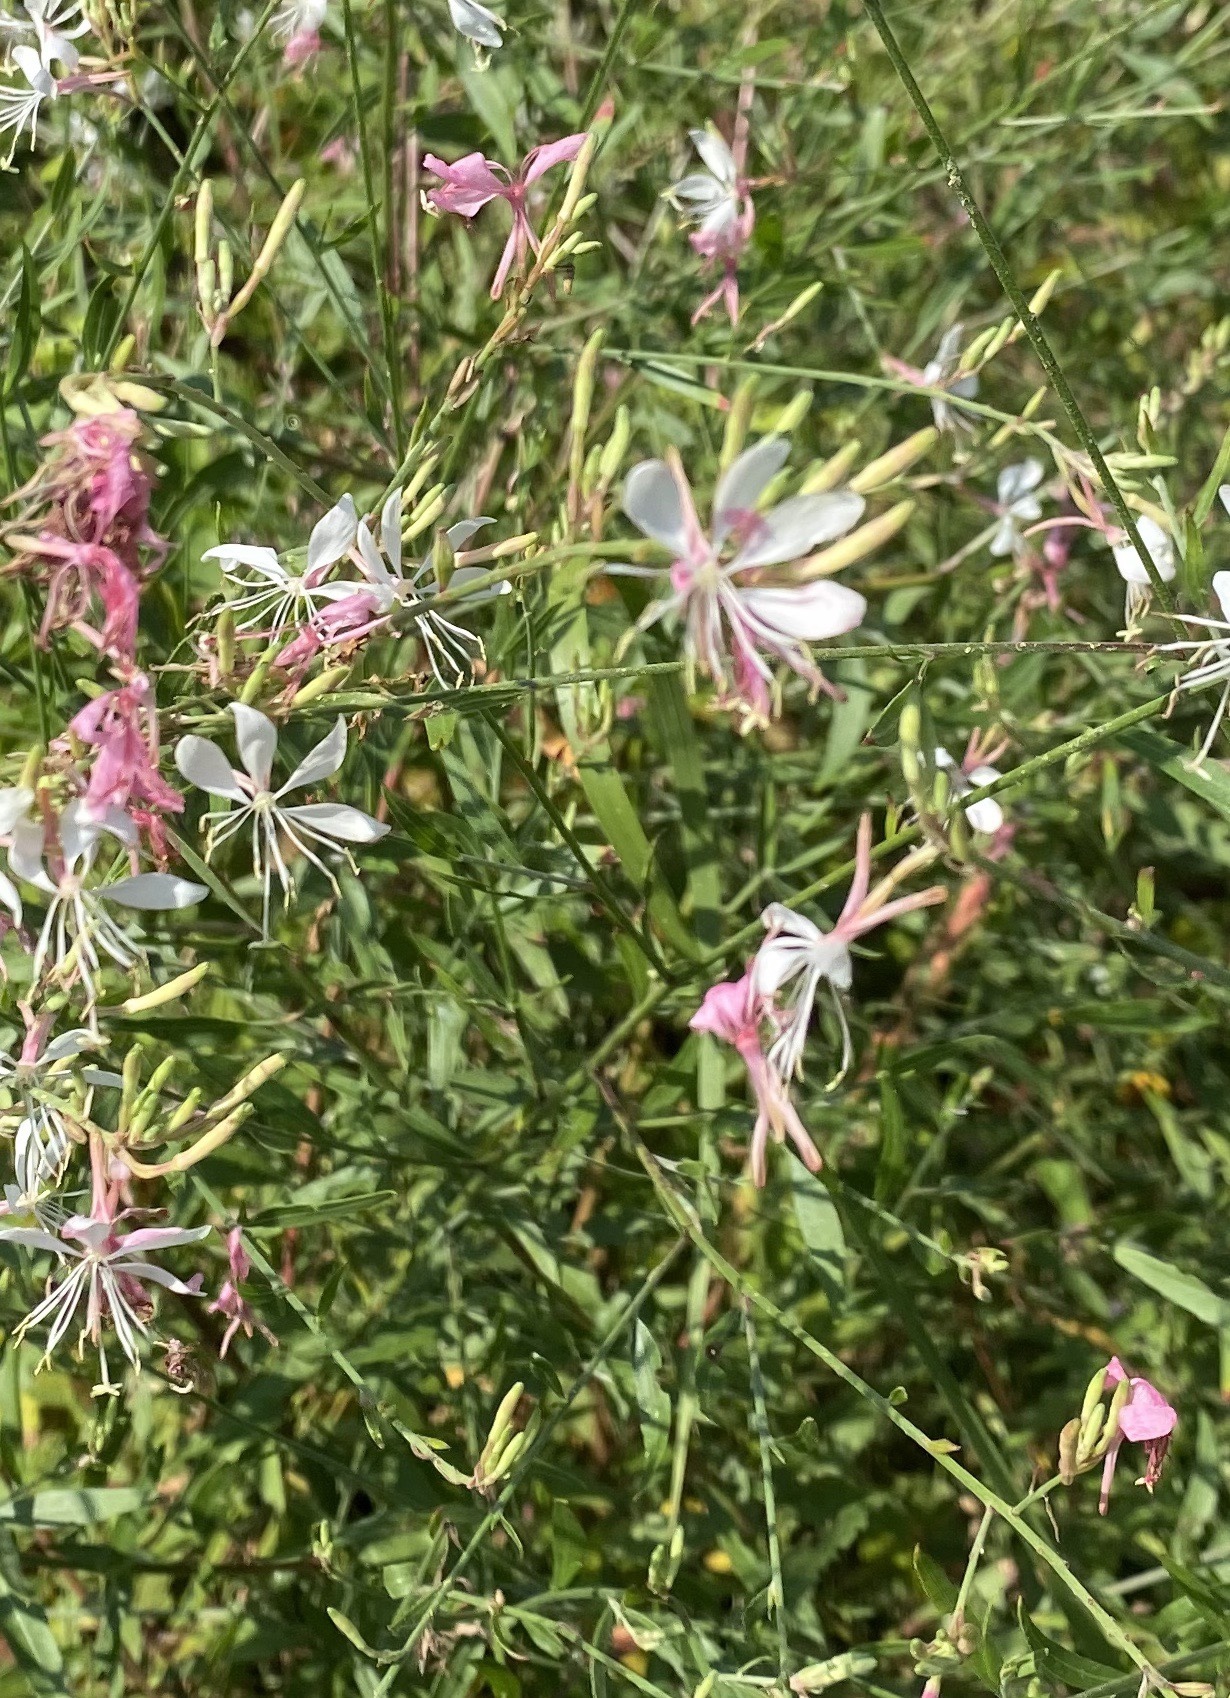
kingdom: Plantae
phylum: Tracheophyta
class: Magnoliopsida
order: Myrtales
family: Onagraceae
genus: Oenothera
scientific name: Oenothera filiformis
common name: Longflower beeblossom
